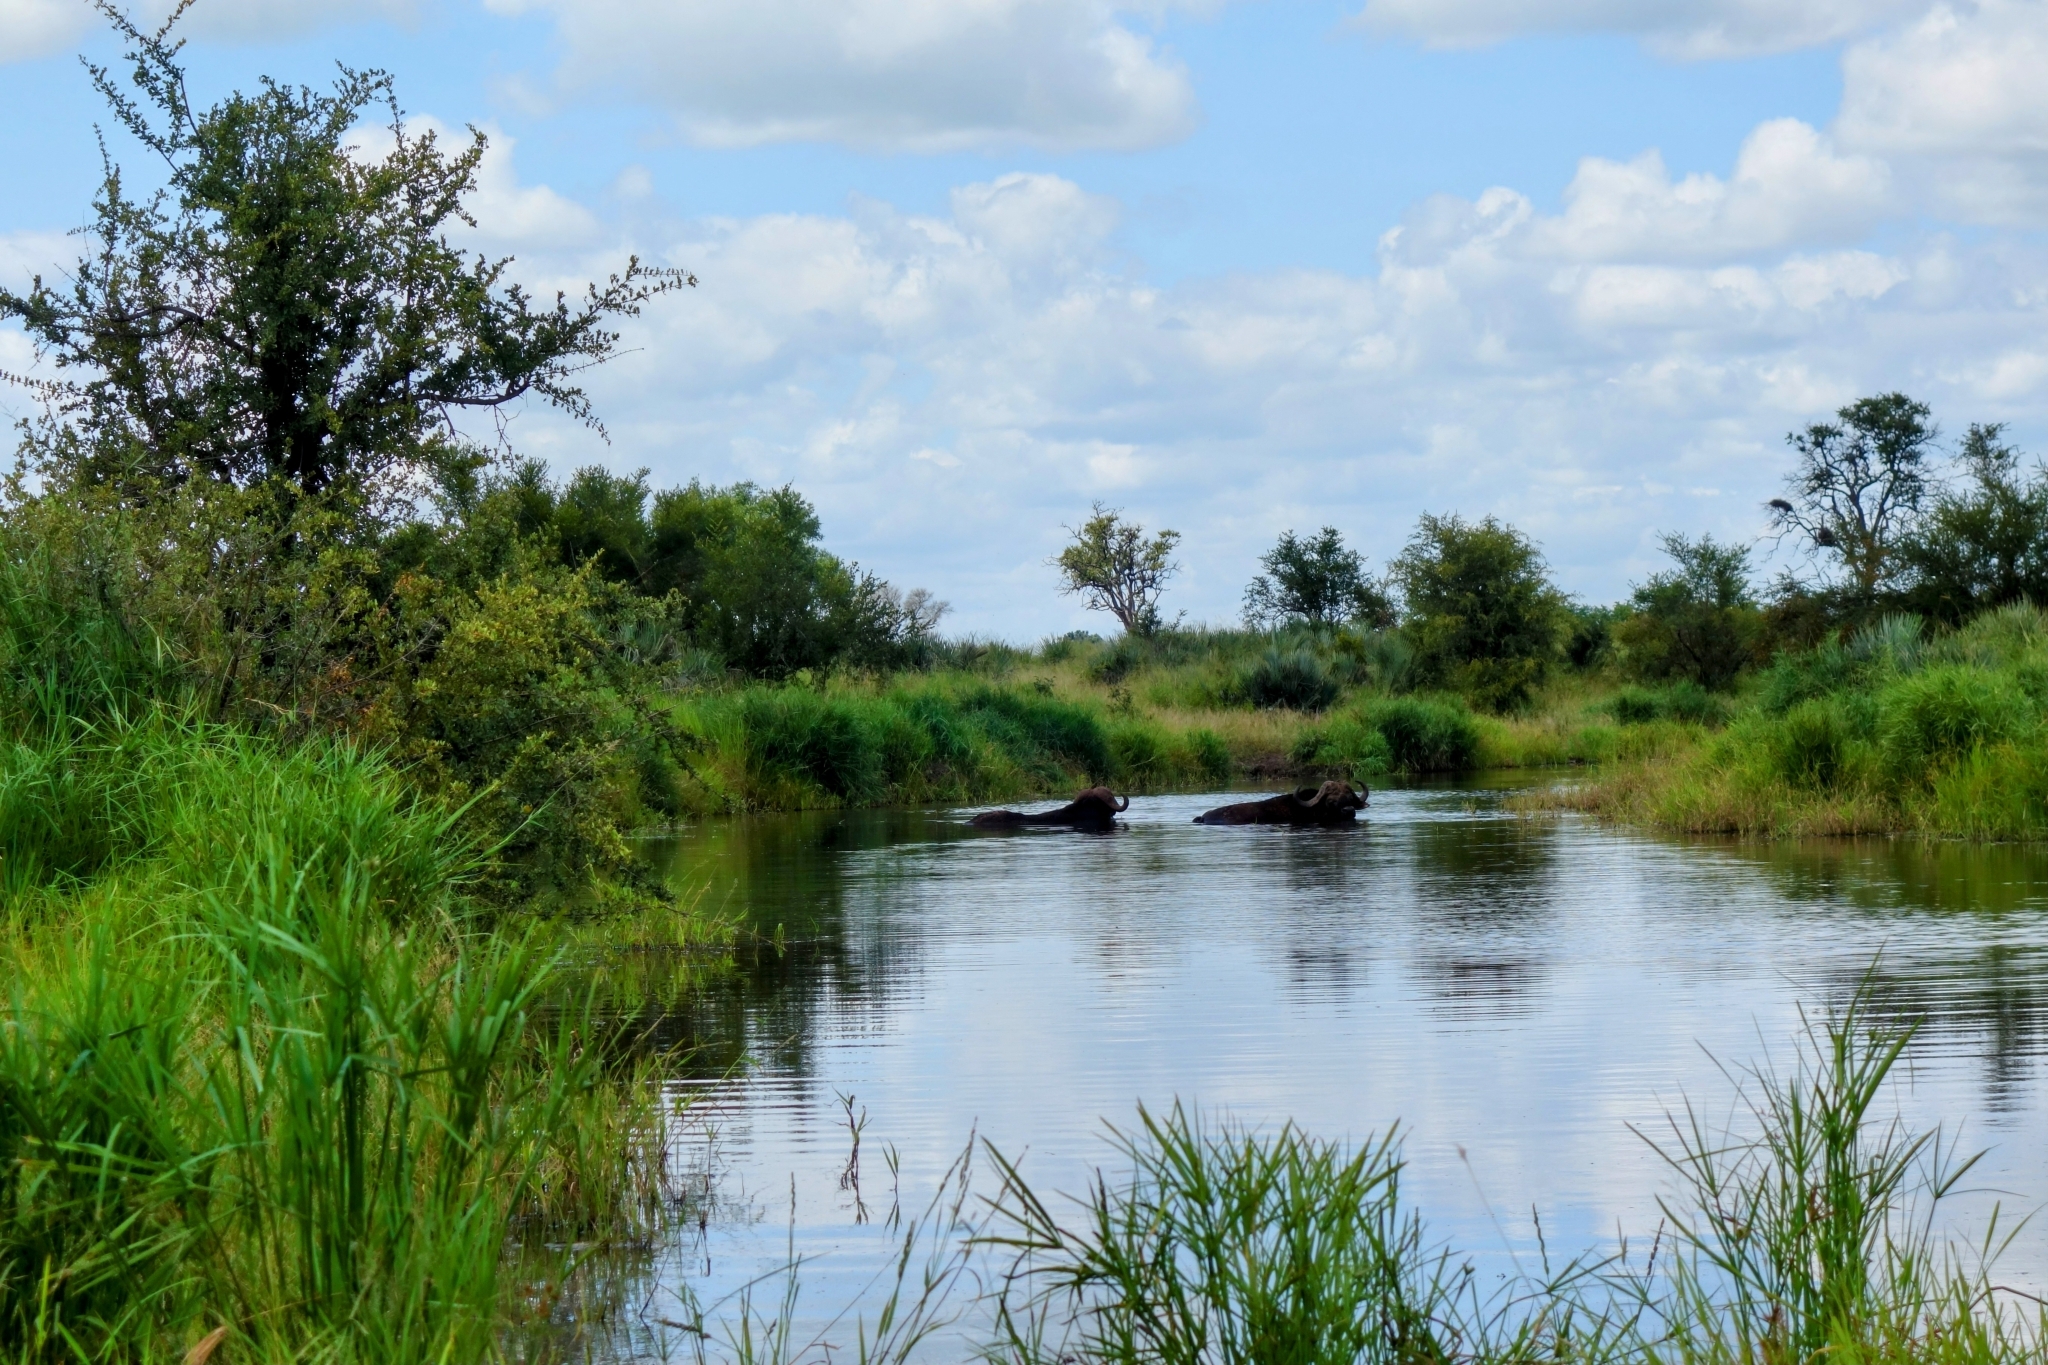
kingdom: Animalia
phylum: Chordata
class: Mammalia
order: Artiodactyla
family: Bovidae
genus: Syncerus
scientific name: Syncerus caffer
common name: African buffalo
